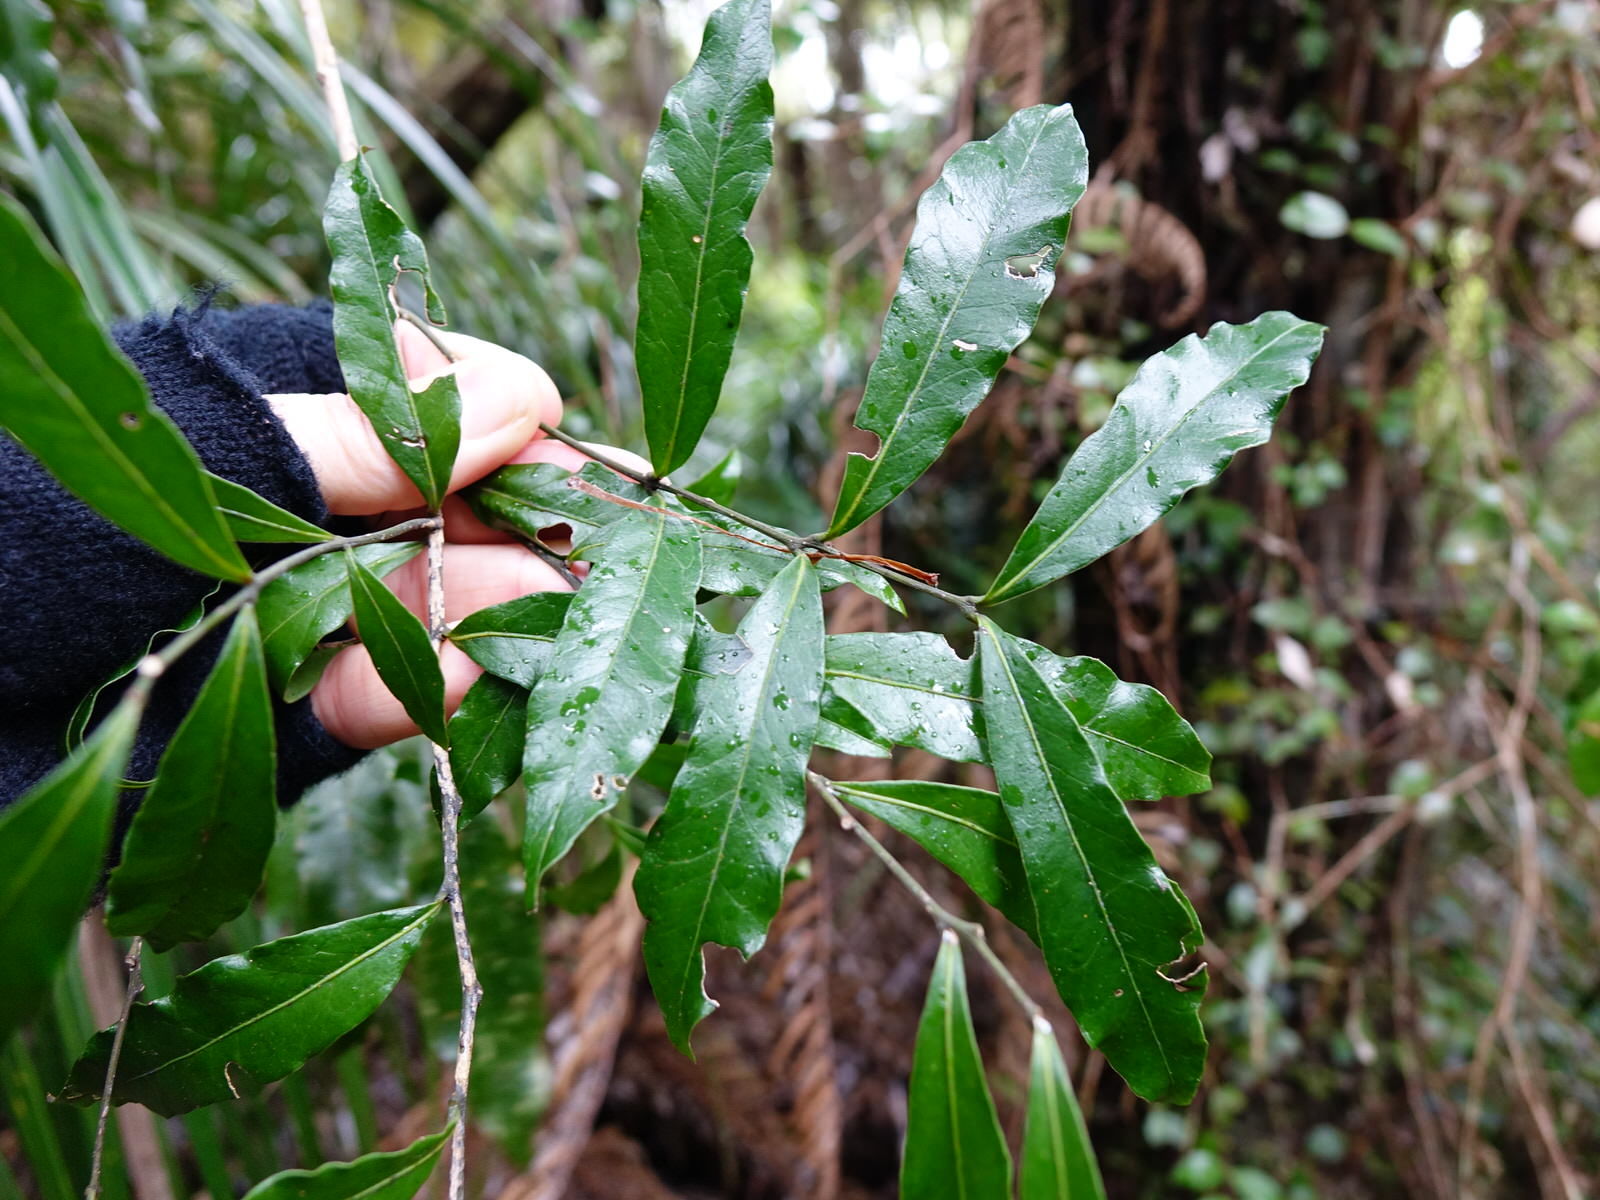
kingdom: Plantae
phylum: Tracheophyta
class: Magnoliopsida
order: Santalales
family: Nanodeaceae
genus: Mida
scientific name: Mida salicifolia
